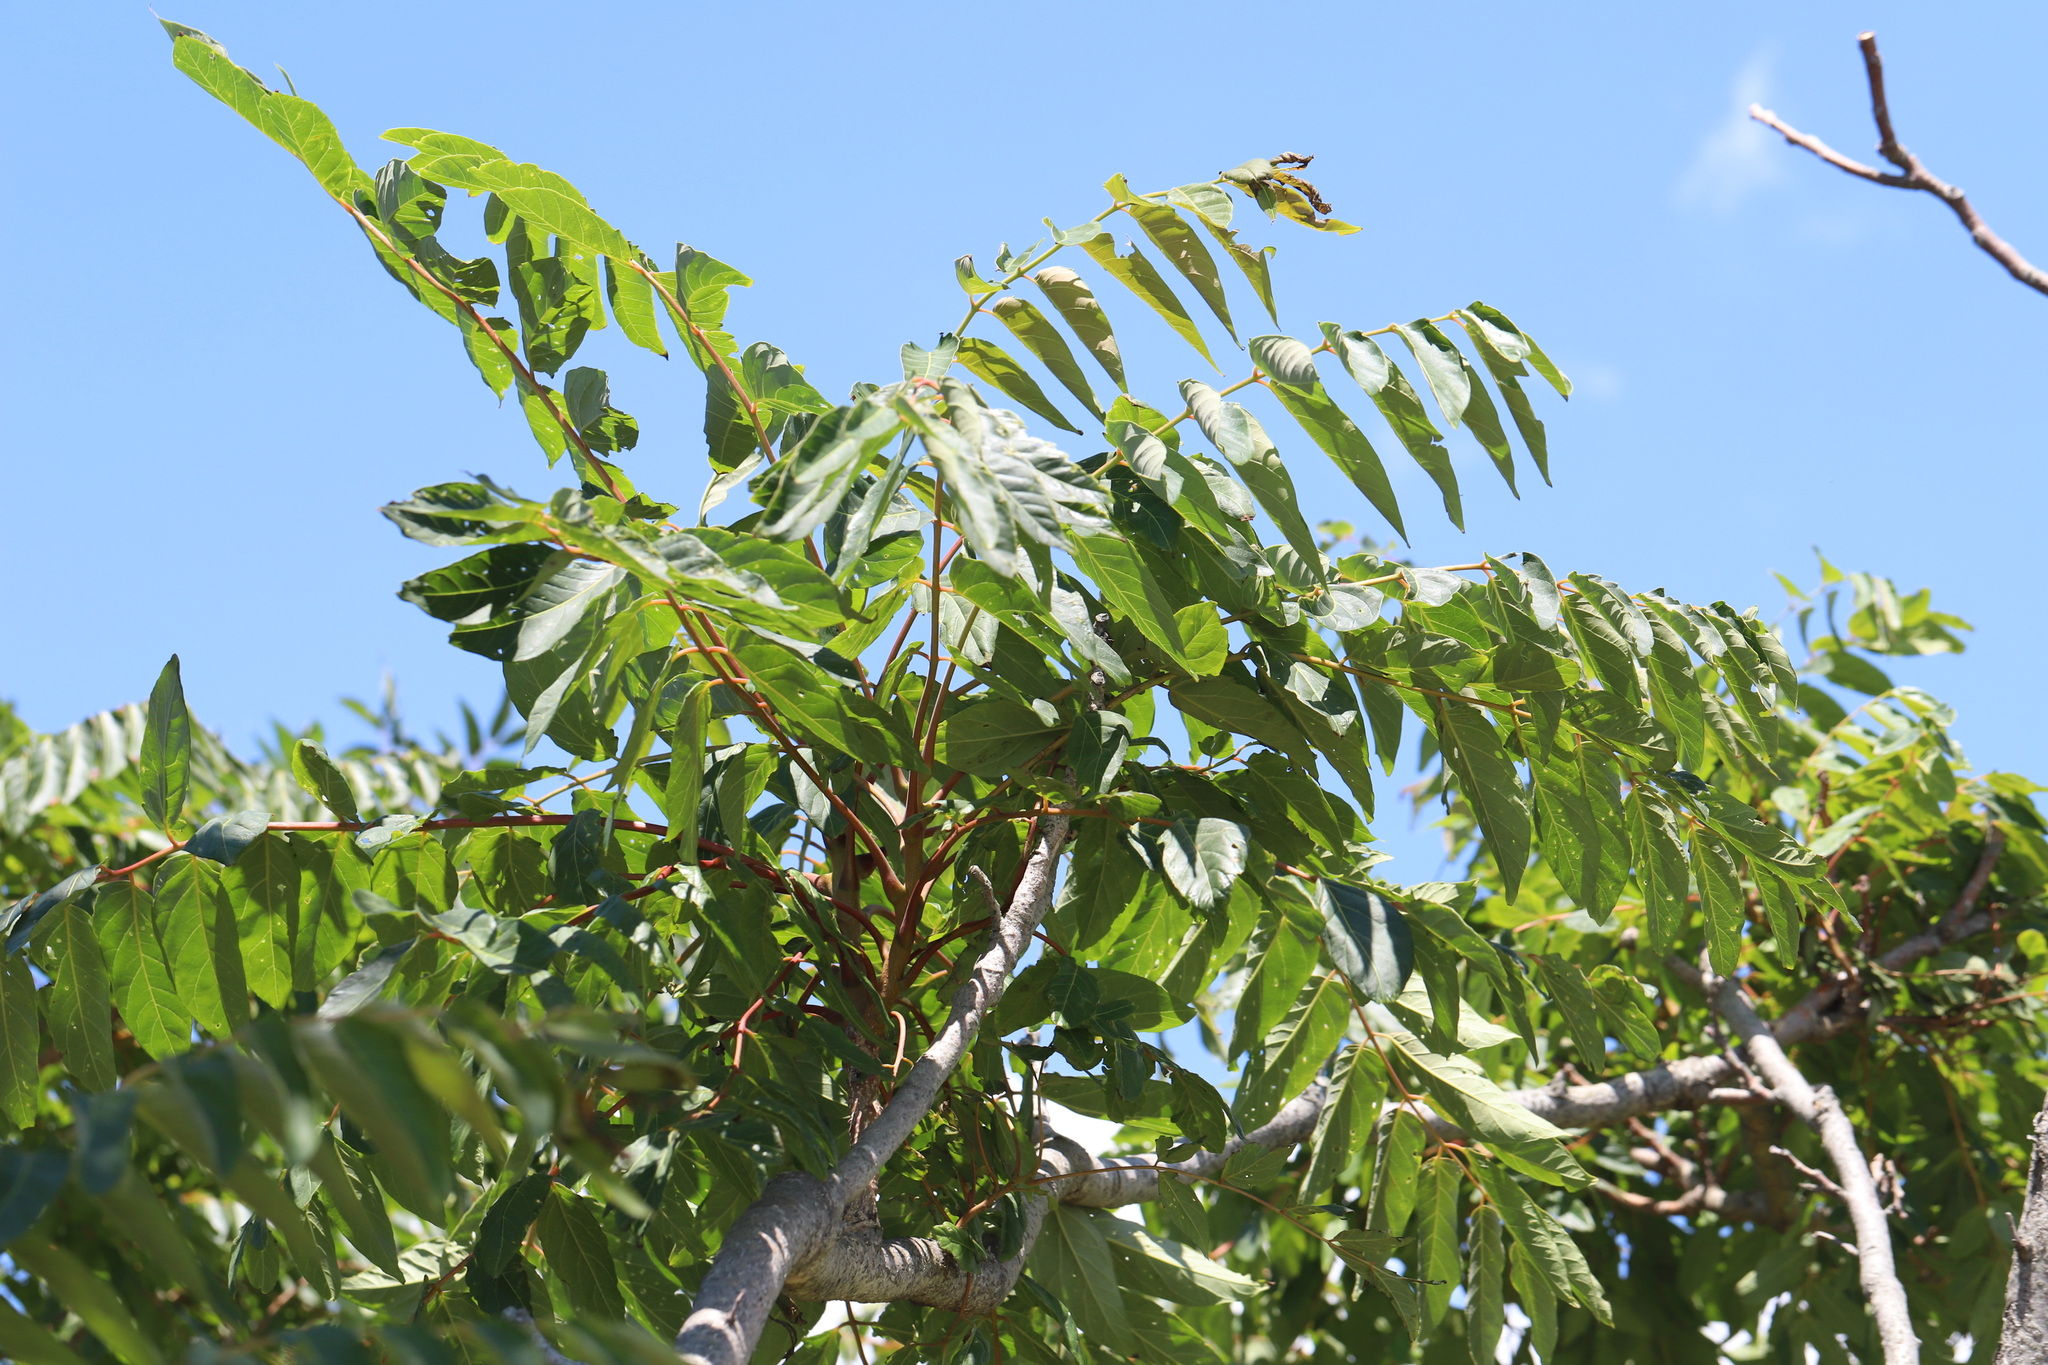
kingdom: Plantae
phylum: Tracheophyta
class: Magnoliopsida
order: Sapindales
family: Simaroubaceae
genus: Ailanthus
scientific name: Ailanthus altissima
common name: Tree-of-heaven
